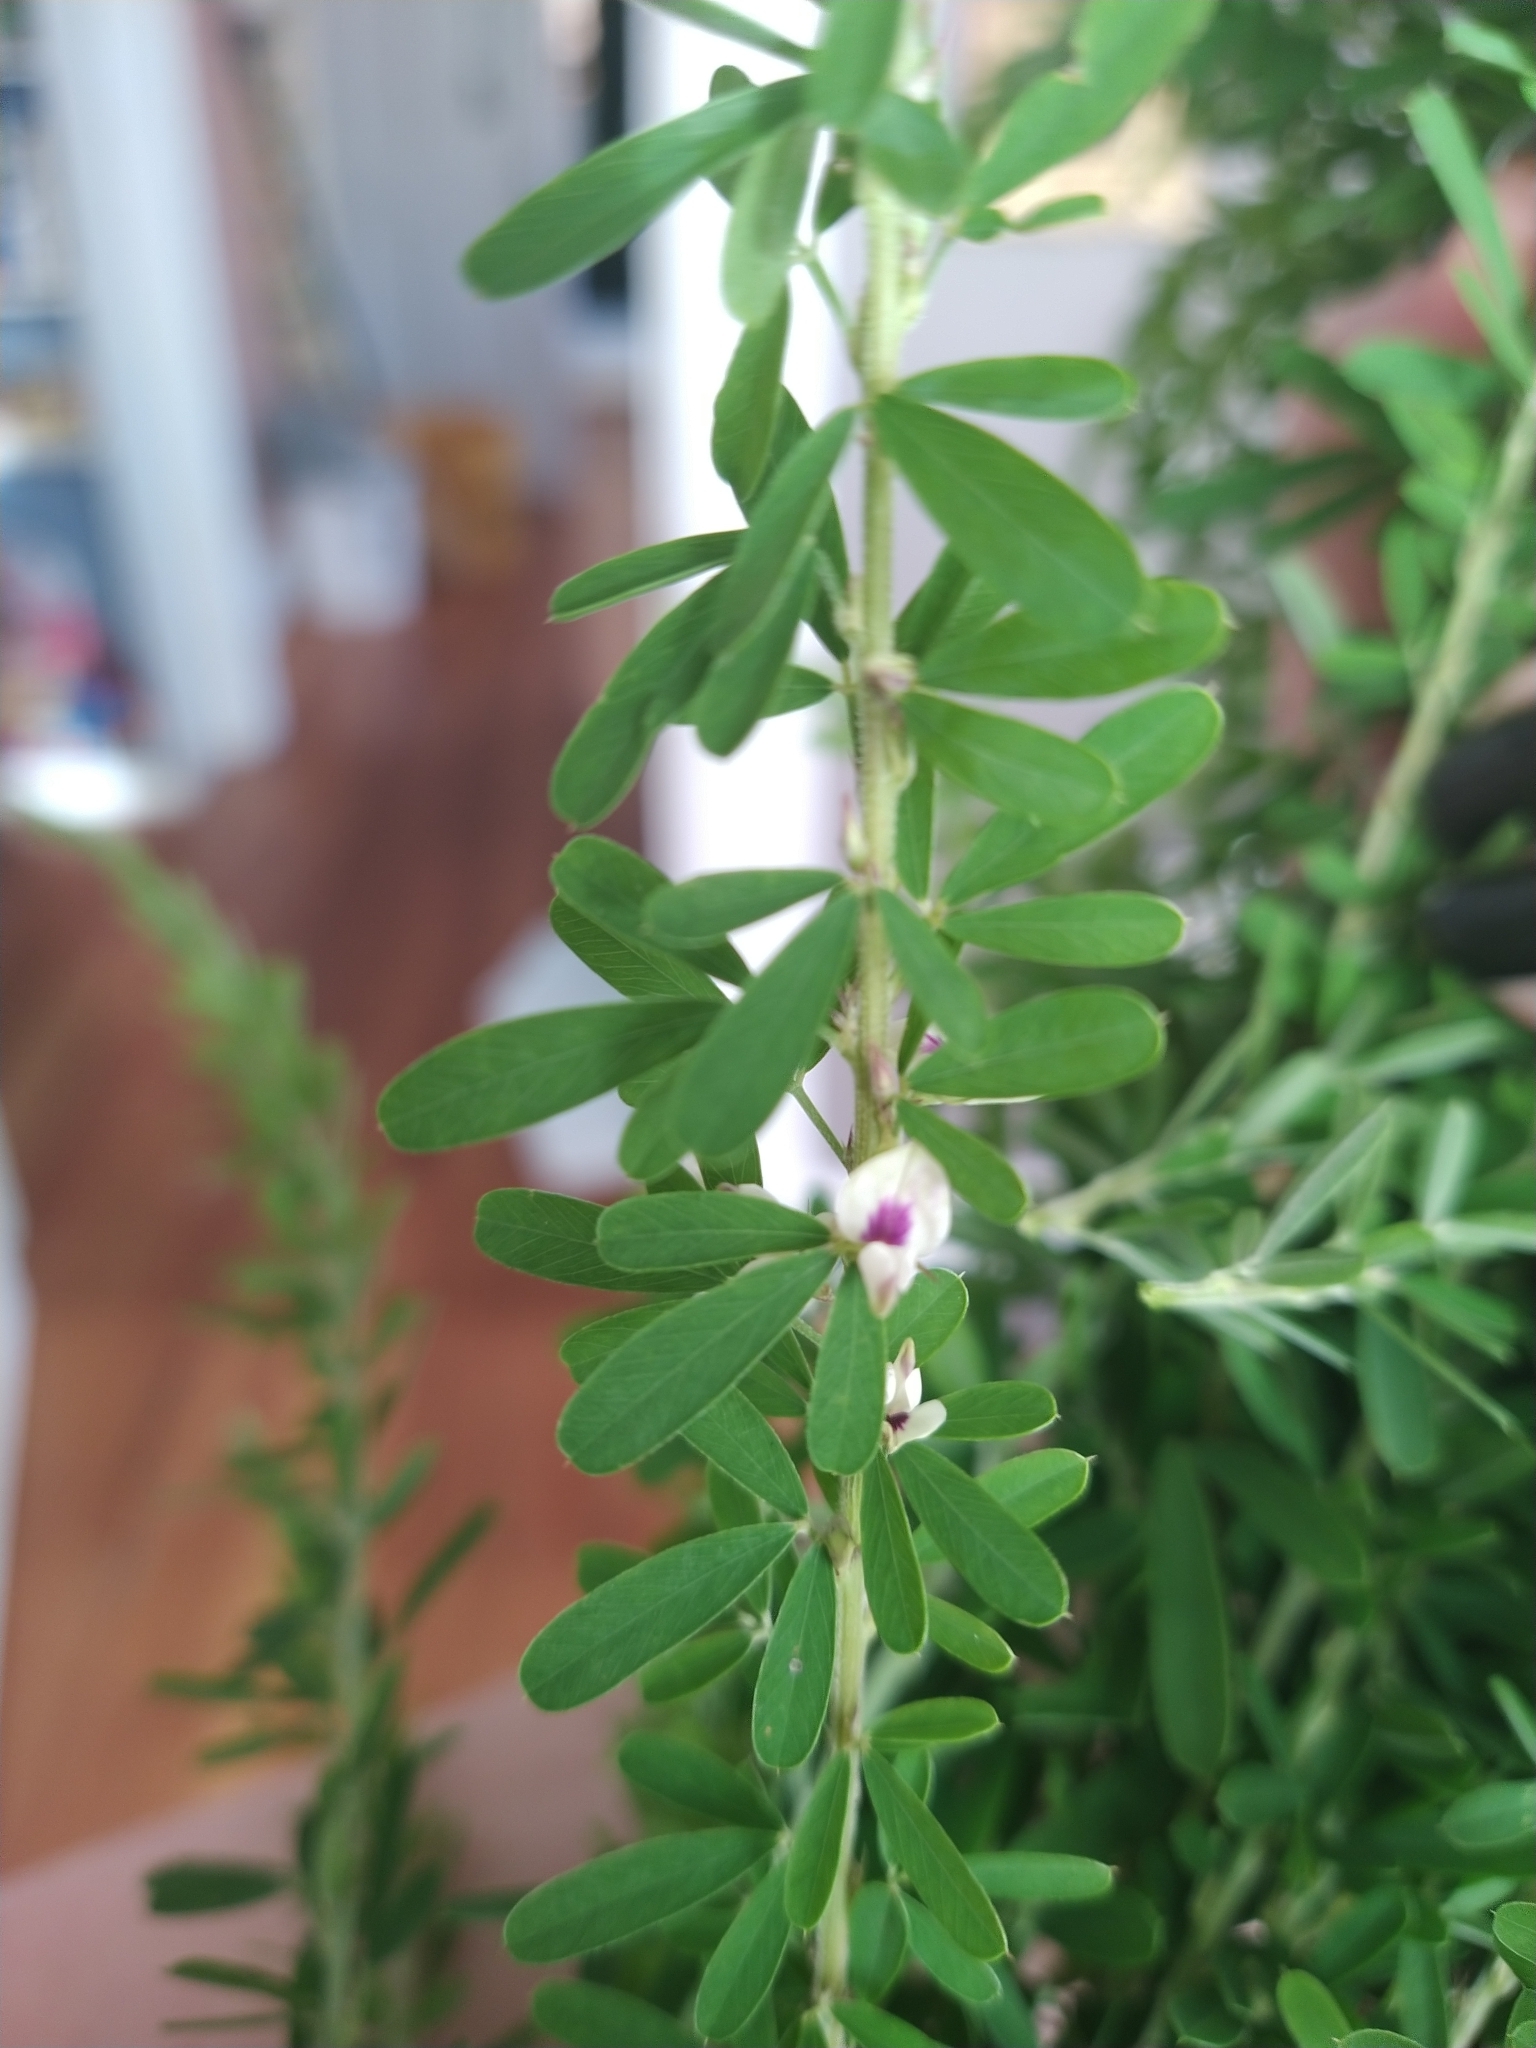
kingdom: Plantae
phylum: Tracheophyta
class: Magnoliopsida
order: Fabales
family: Fabaceae
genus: Lespedeza
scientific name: Lespedeza cuneata
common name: Chinese bush-clover
